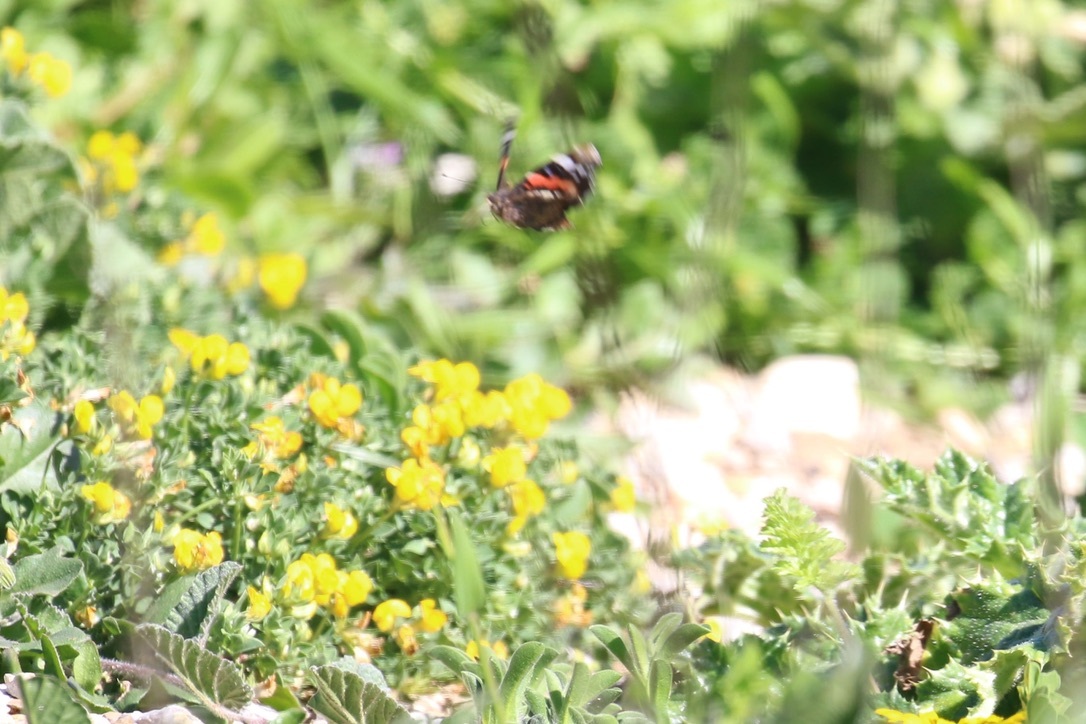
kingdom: Animalia
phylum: Arthropoda
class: Insecta
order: Lepidoptera
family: Nymphalidae
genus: Vanessa
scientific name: Vanessa atalanta
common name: Red admiral
